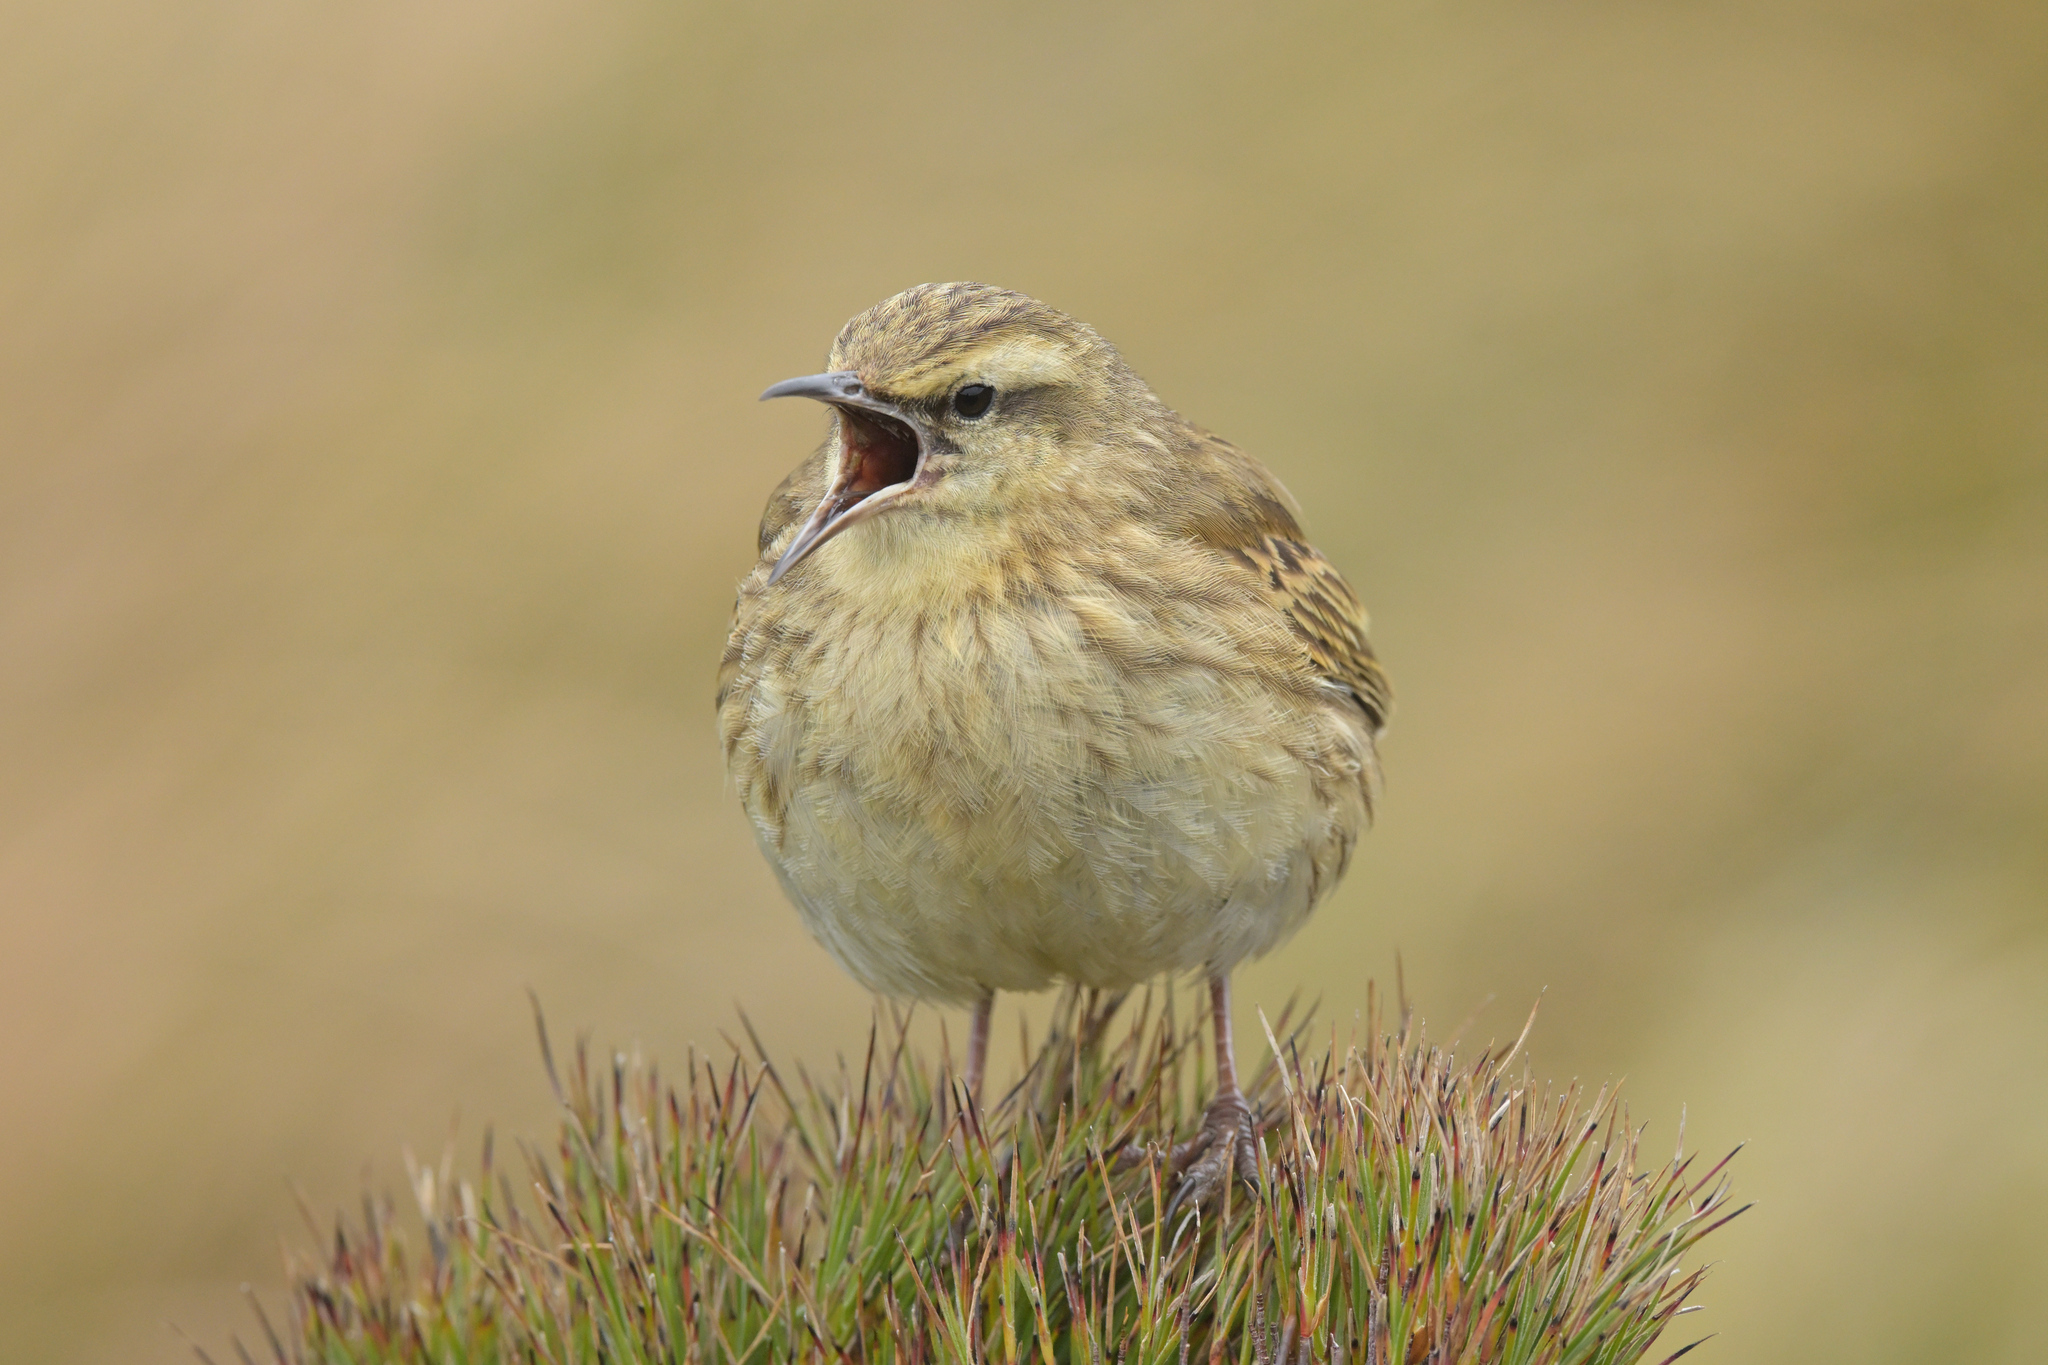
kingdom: Animalia
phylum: Chordata
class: Aves
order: Passeriformes
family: Motacillidae
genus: Anthus
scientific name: Anthus novaeseelandiae
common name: New zealand pipit
